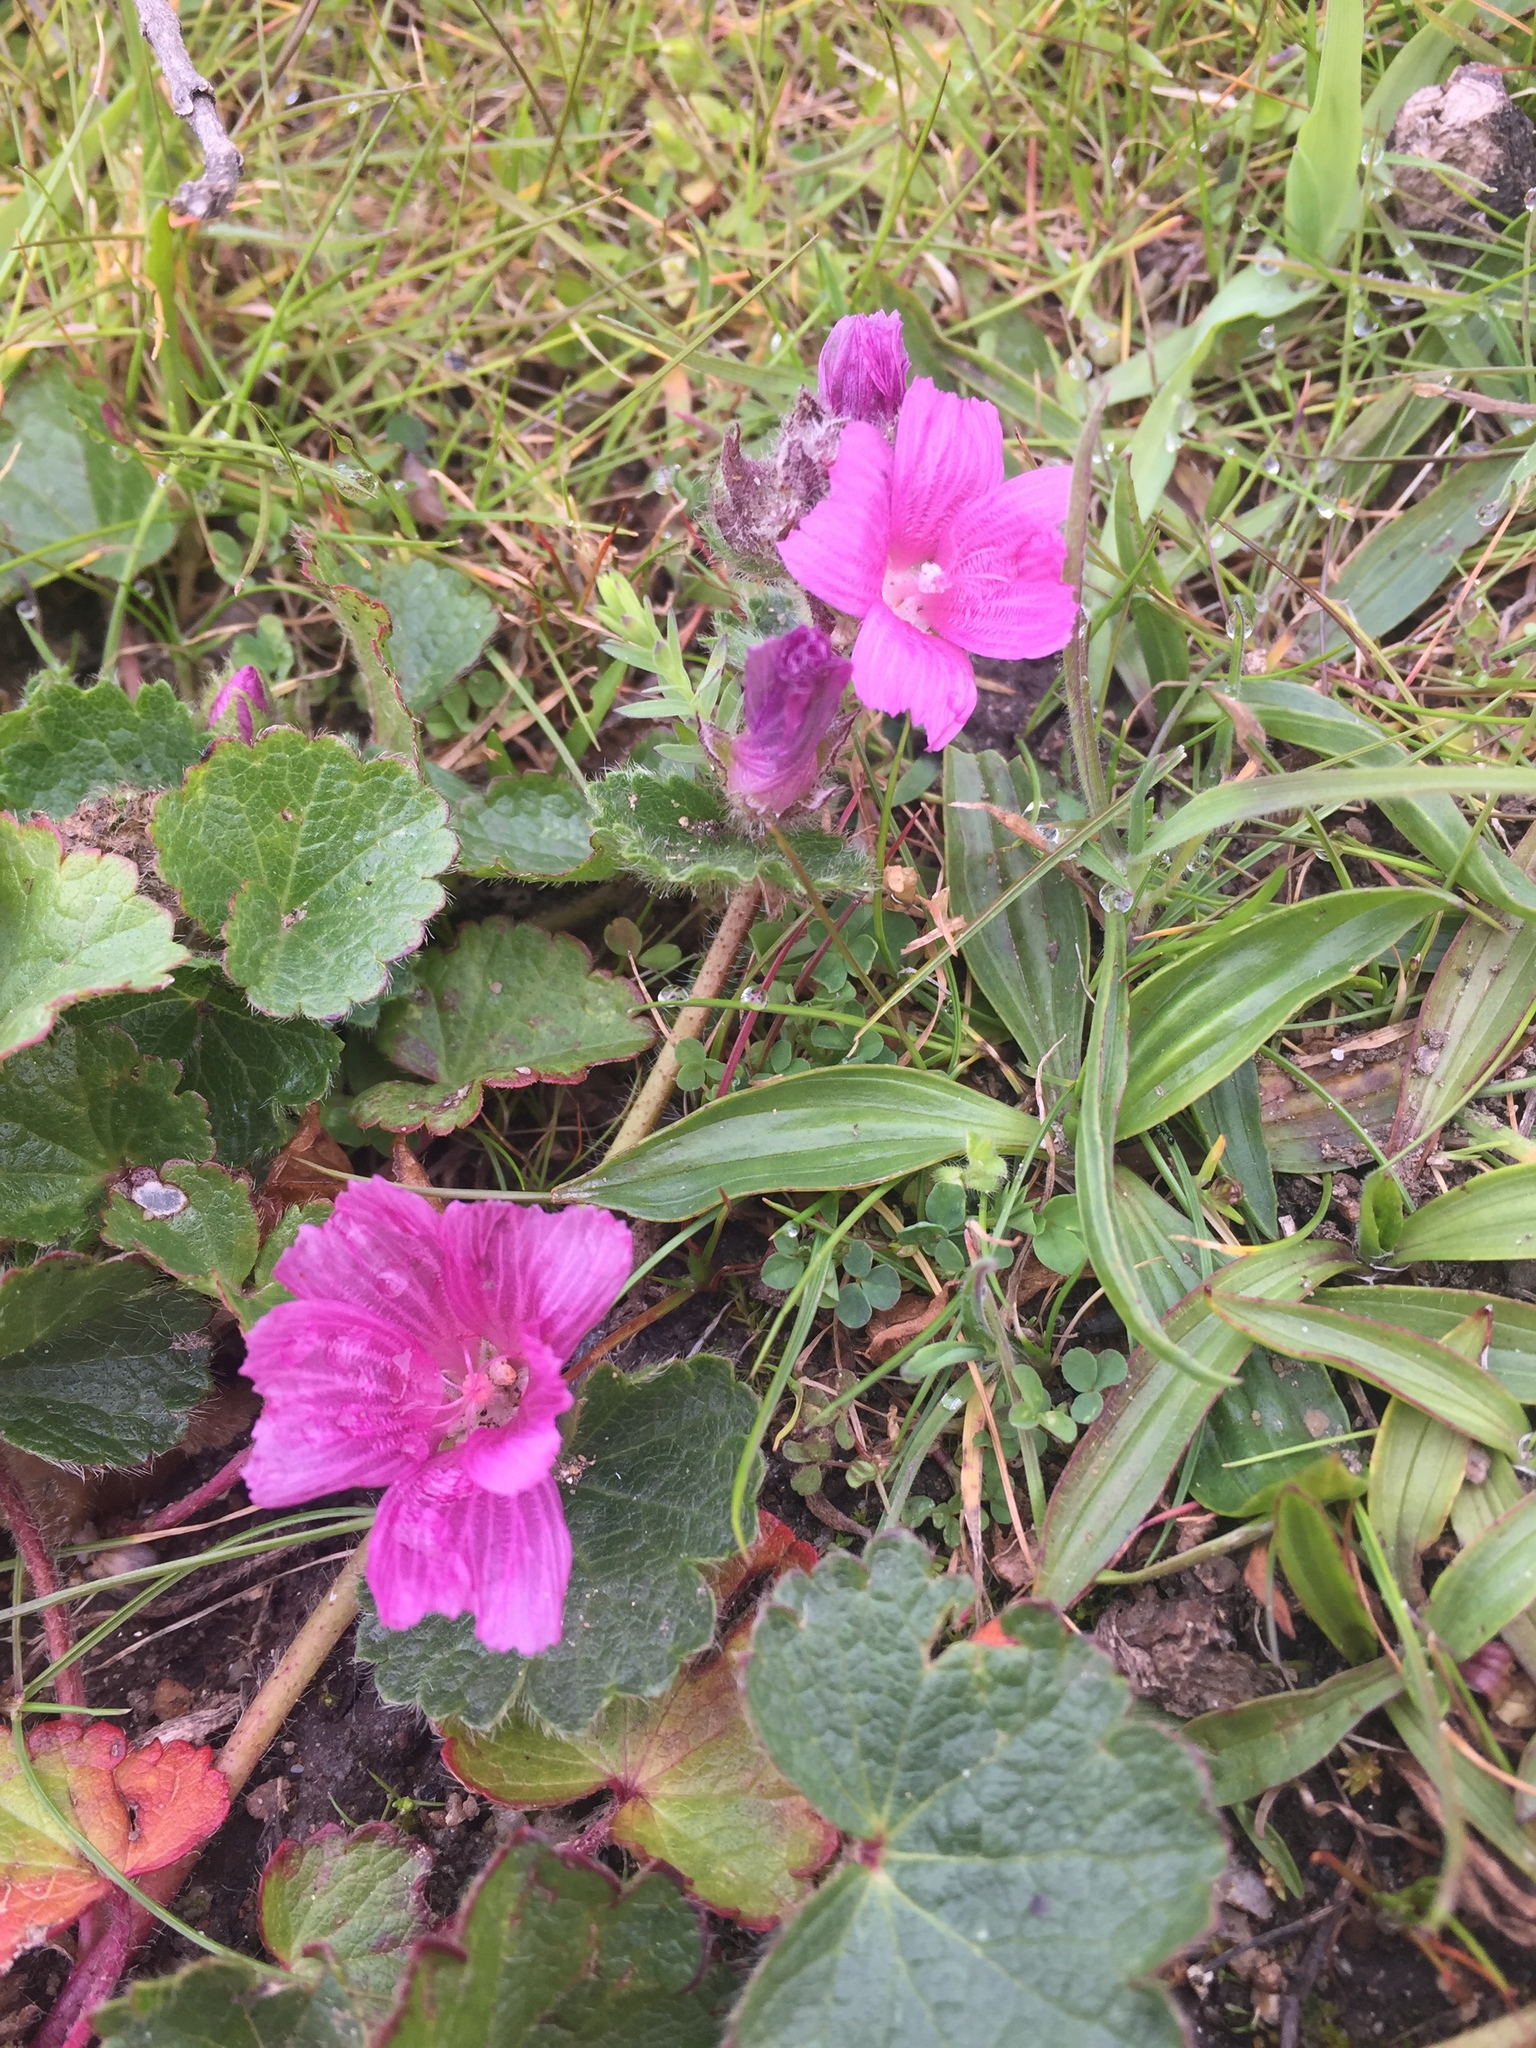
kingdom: Plantae
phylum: Tracheophyta
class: Magnoliopsida
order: Malvales
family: Malvaceae
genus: Sidalcea
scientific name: Sidalcea malviflora
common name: Greek mallow
